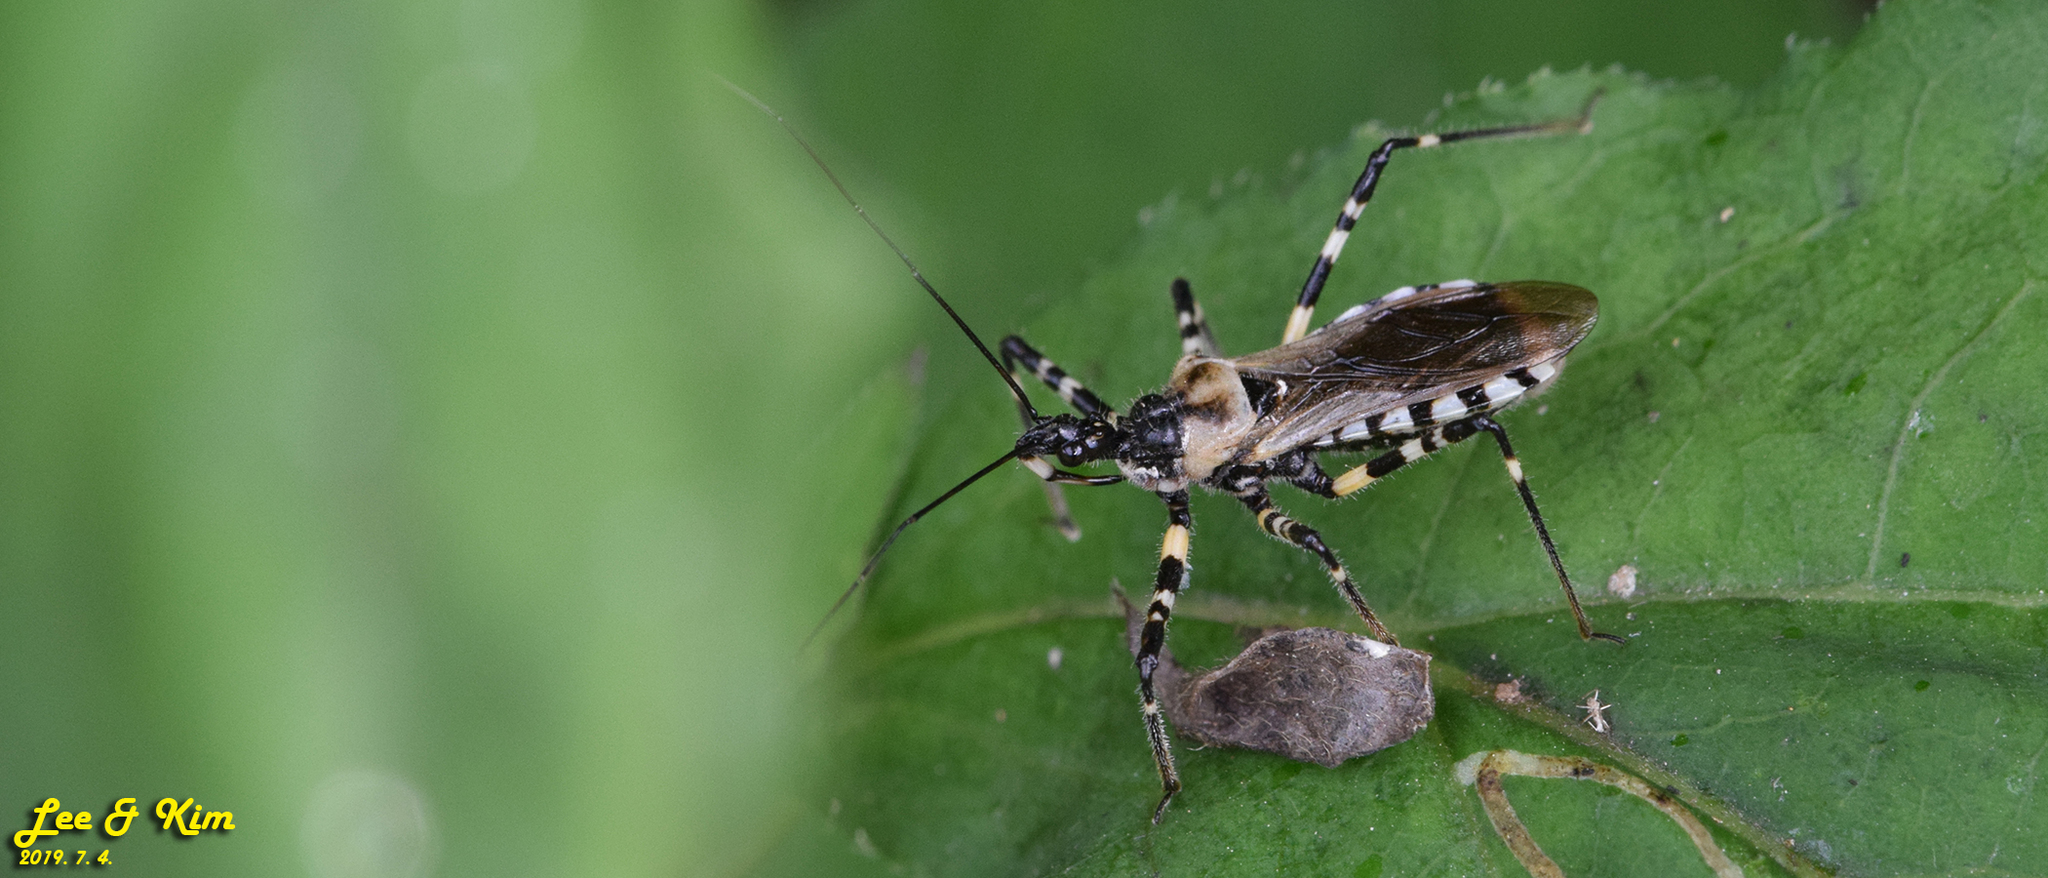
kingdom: Animalia
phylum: Arthropoda
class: Insecta
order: Hemiptera
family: Reduviidae
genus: Sphedanolestes
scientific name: Sphedanolestes impressicollis
